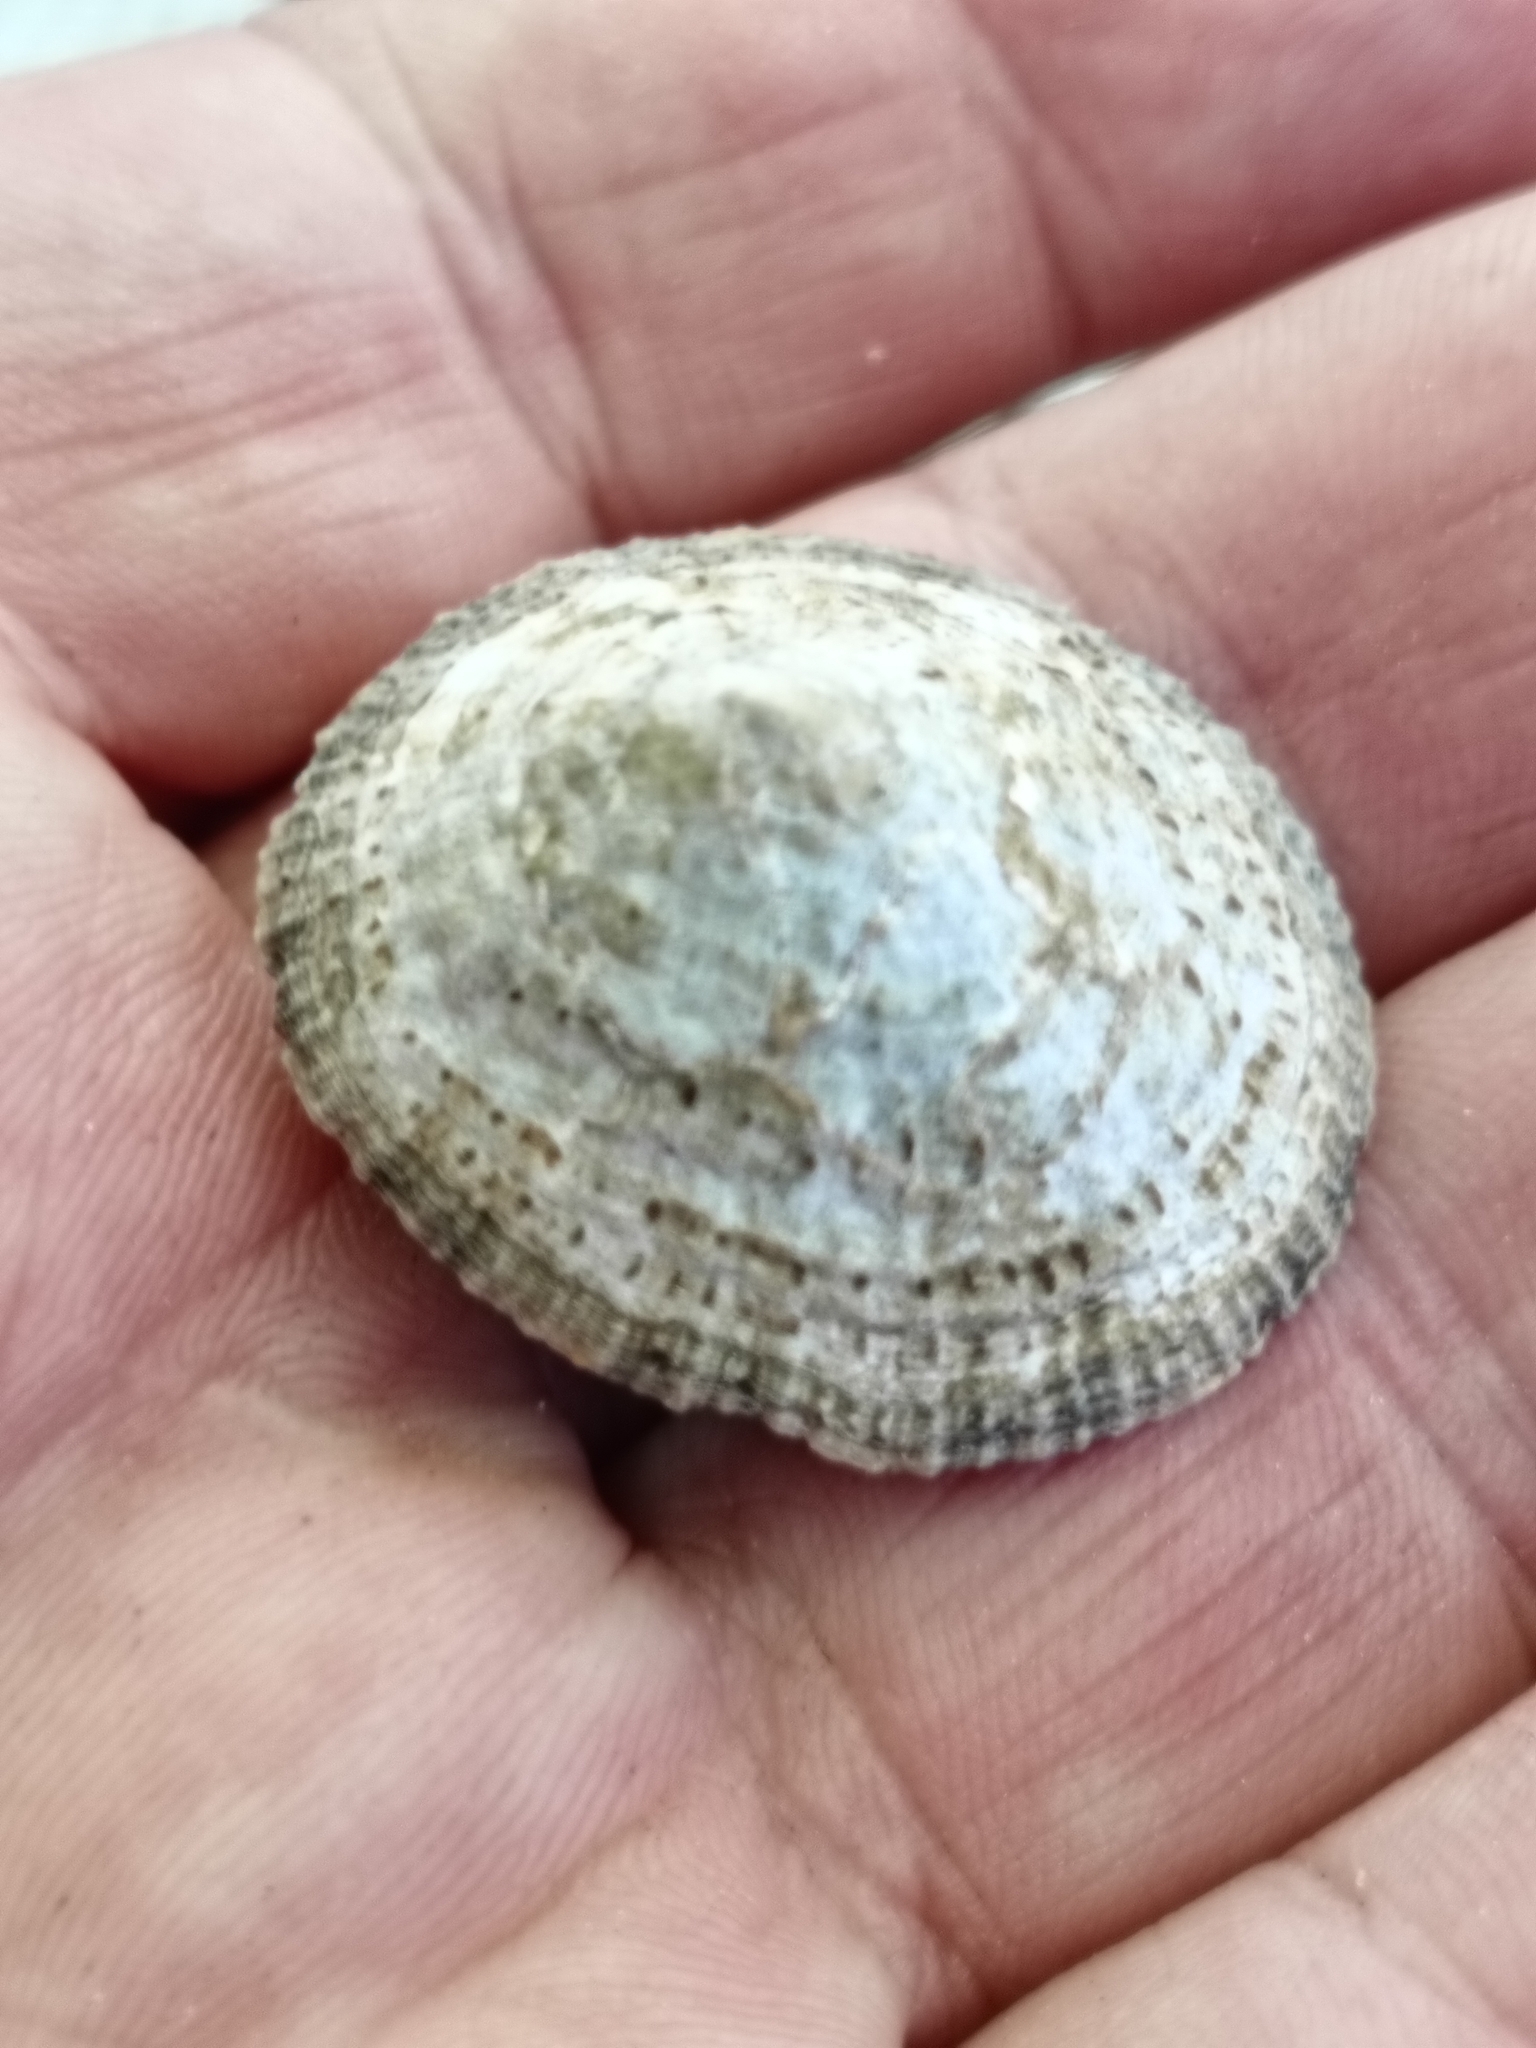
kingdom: Animalia
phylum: Mollusca
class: Gastropoda
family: Patellidae
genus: Patella
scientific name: Patella rustica
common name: Lusitanian limpet
